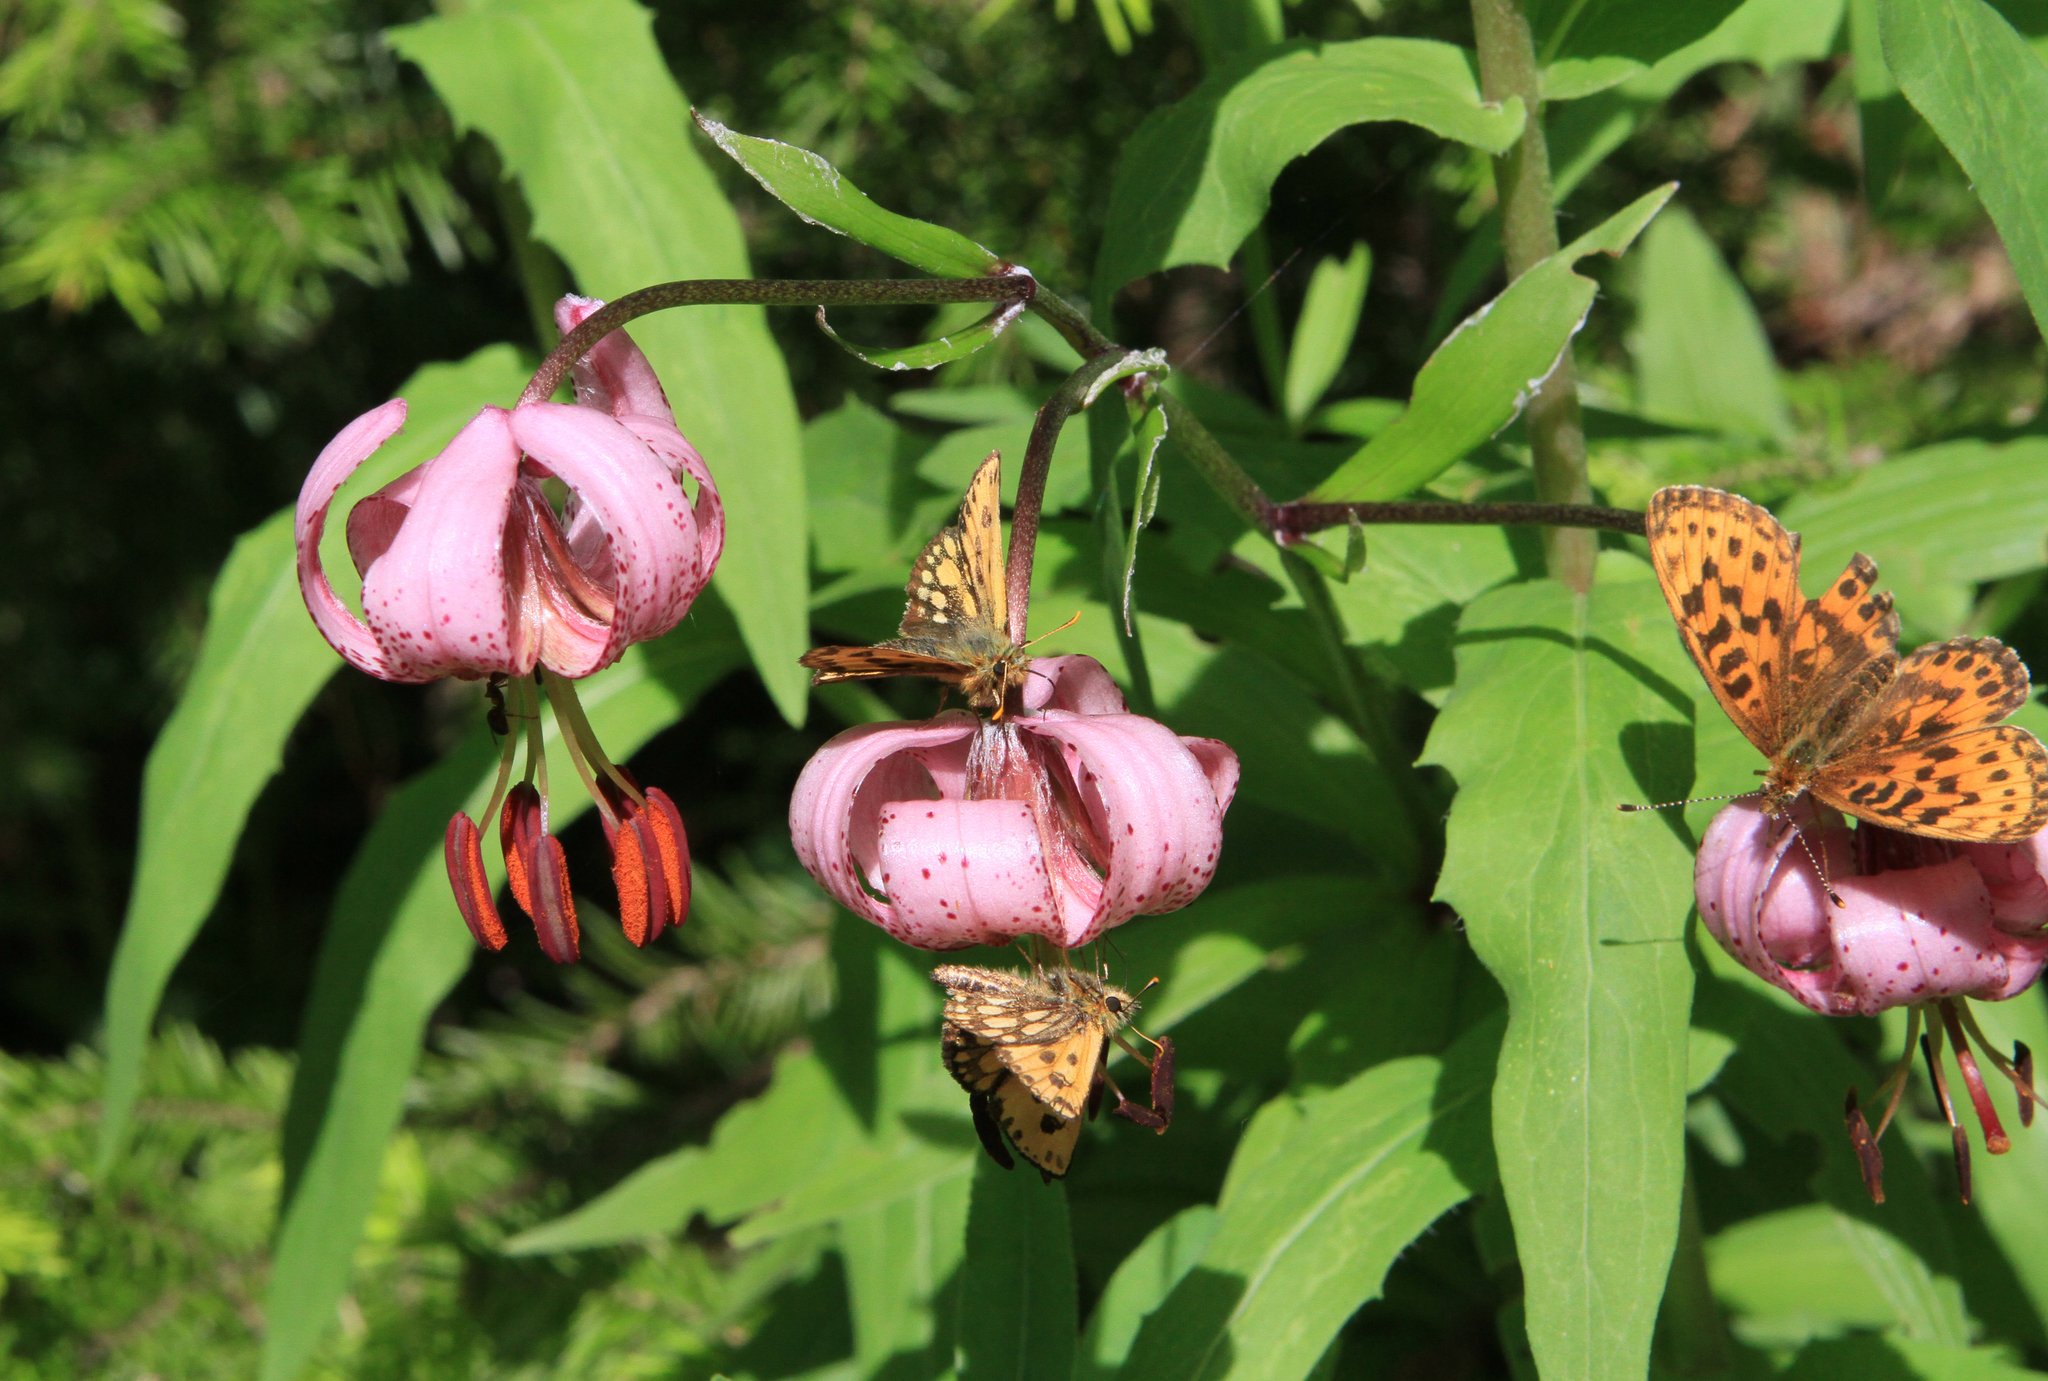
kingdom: Plantae
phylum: Tracheophyta
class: Liliopsida
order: Liliales
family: Liliaceae
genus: Lilium
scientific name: Lilium martagon
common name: Martagon lily
